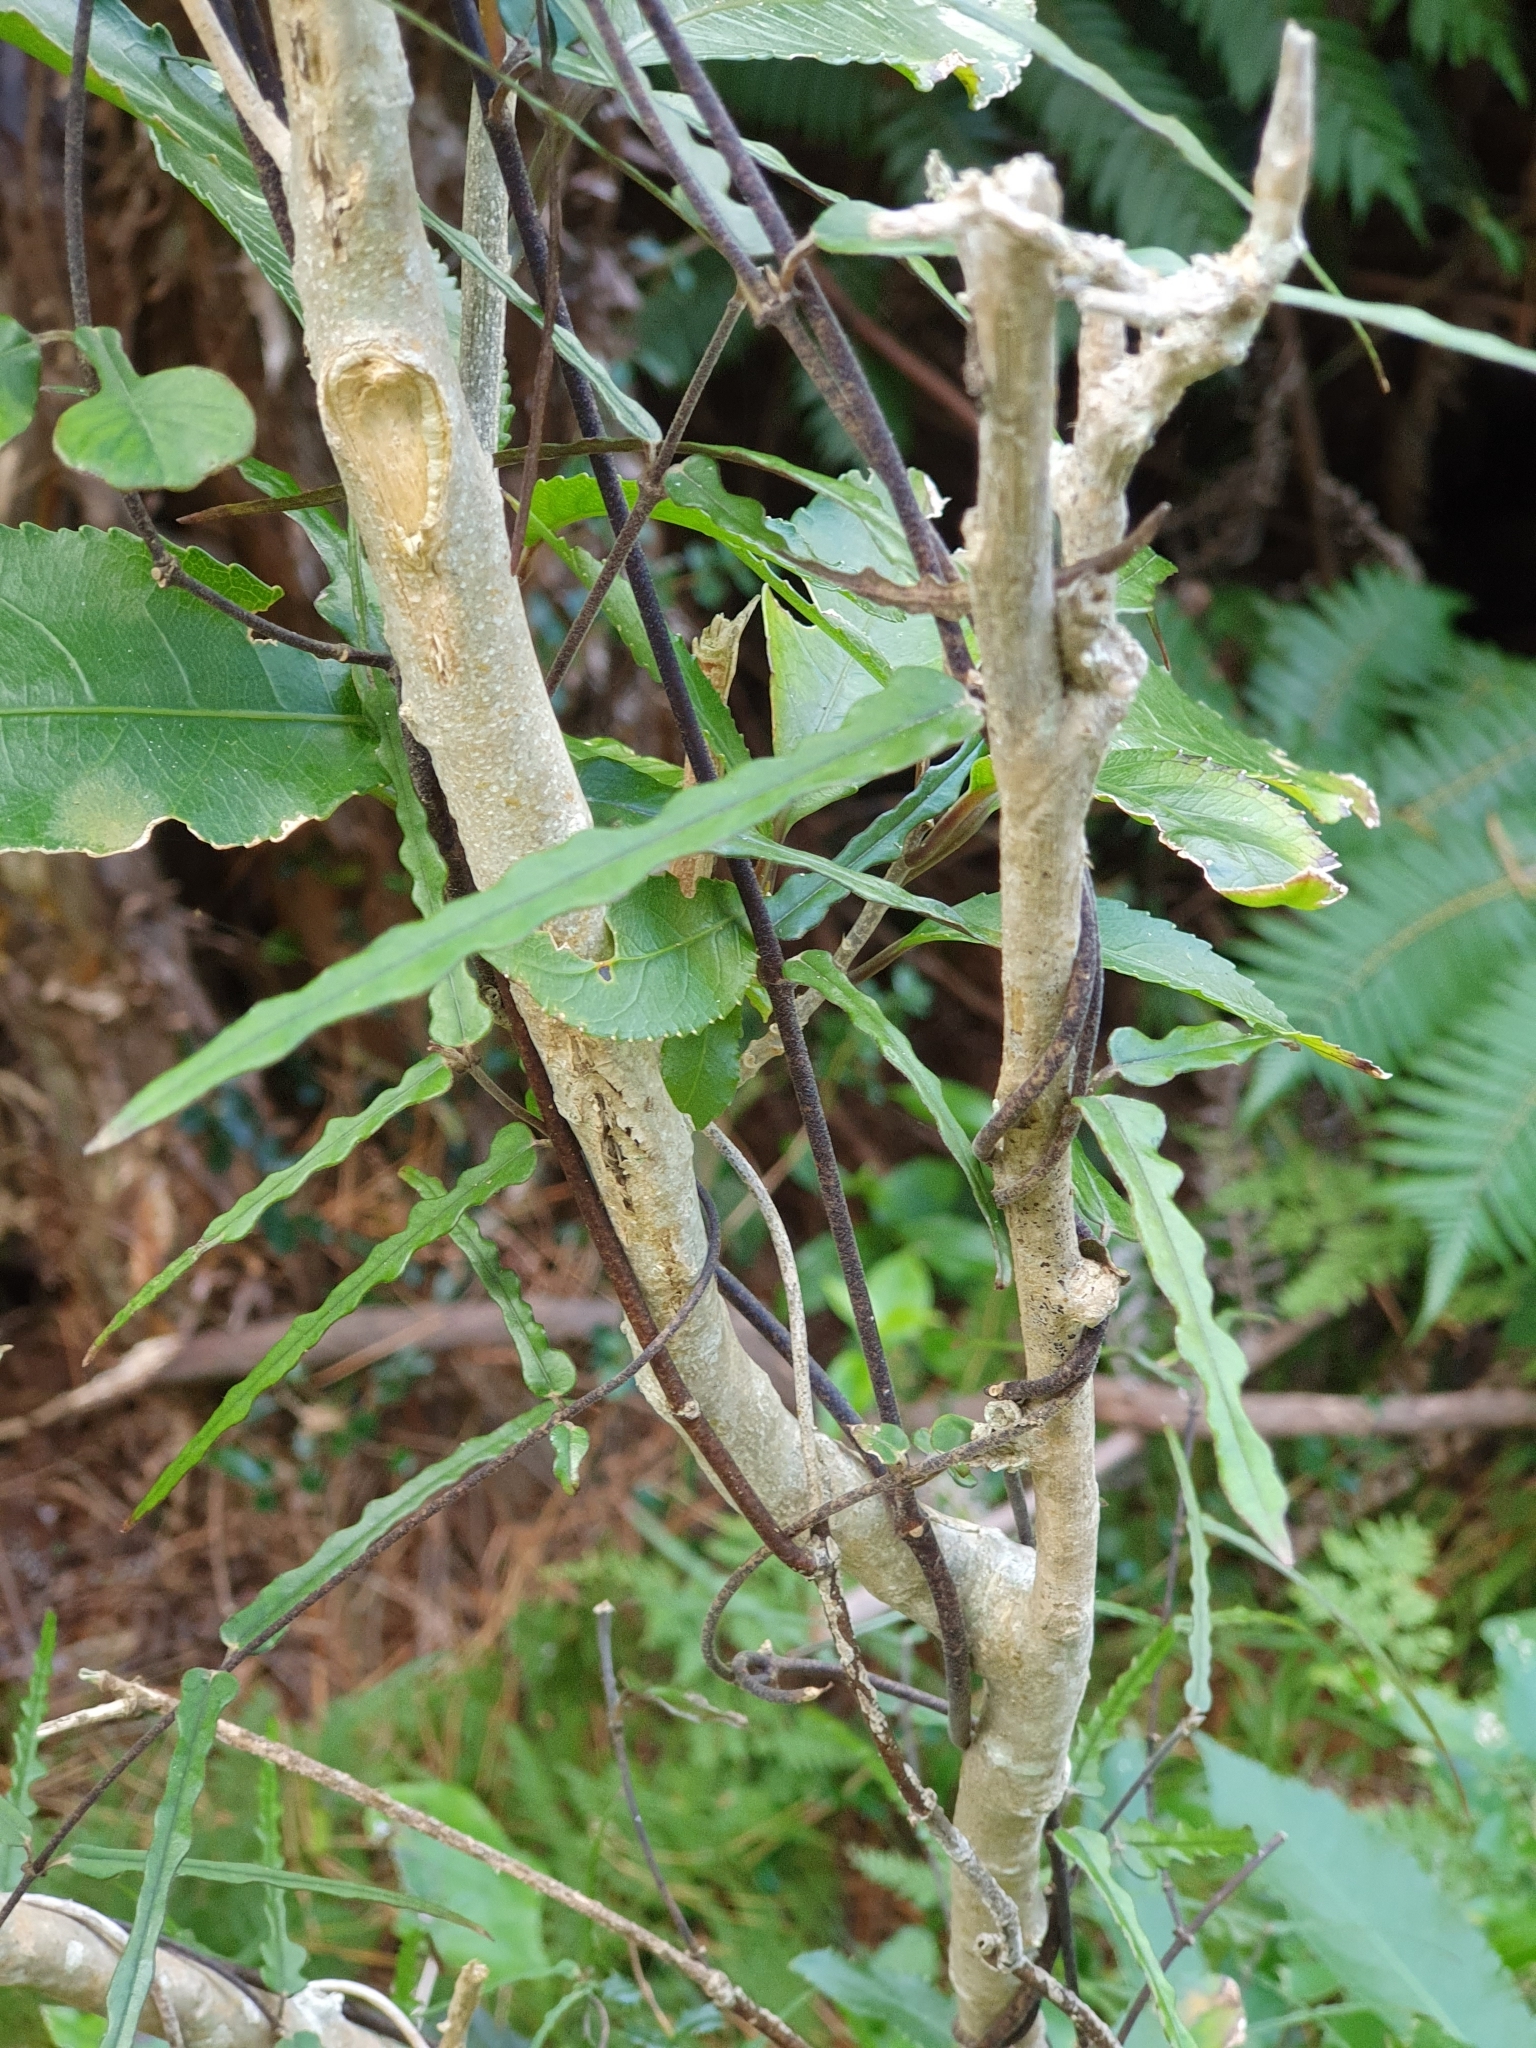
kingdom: Plantae
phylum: Tracheophyta
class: Magnoliopsida
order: Gentianales
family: Apocynaceae
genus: Parsonsia
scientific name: Parsonsia capsularis
